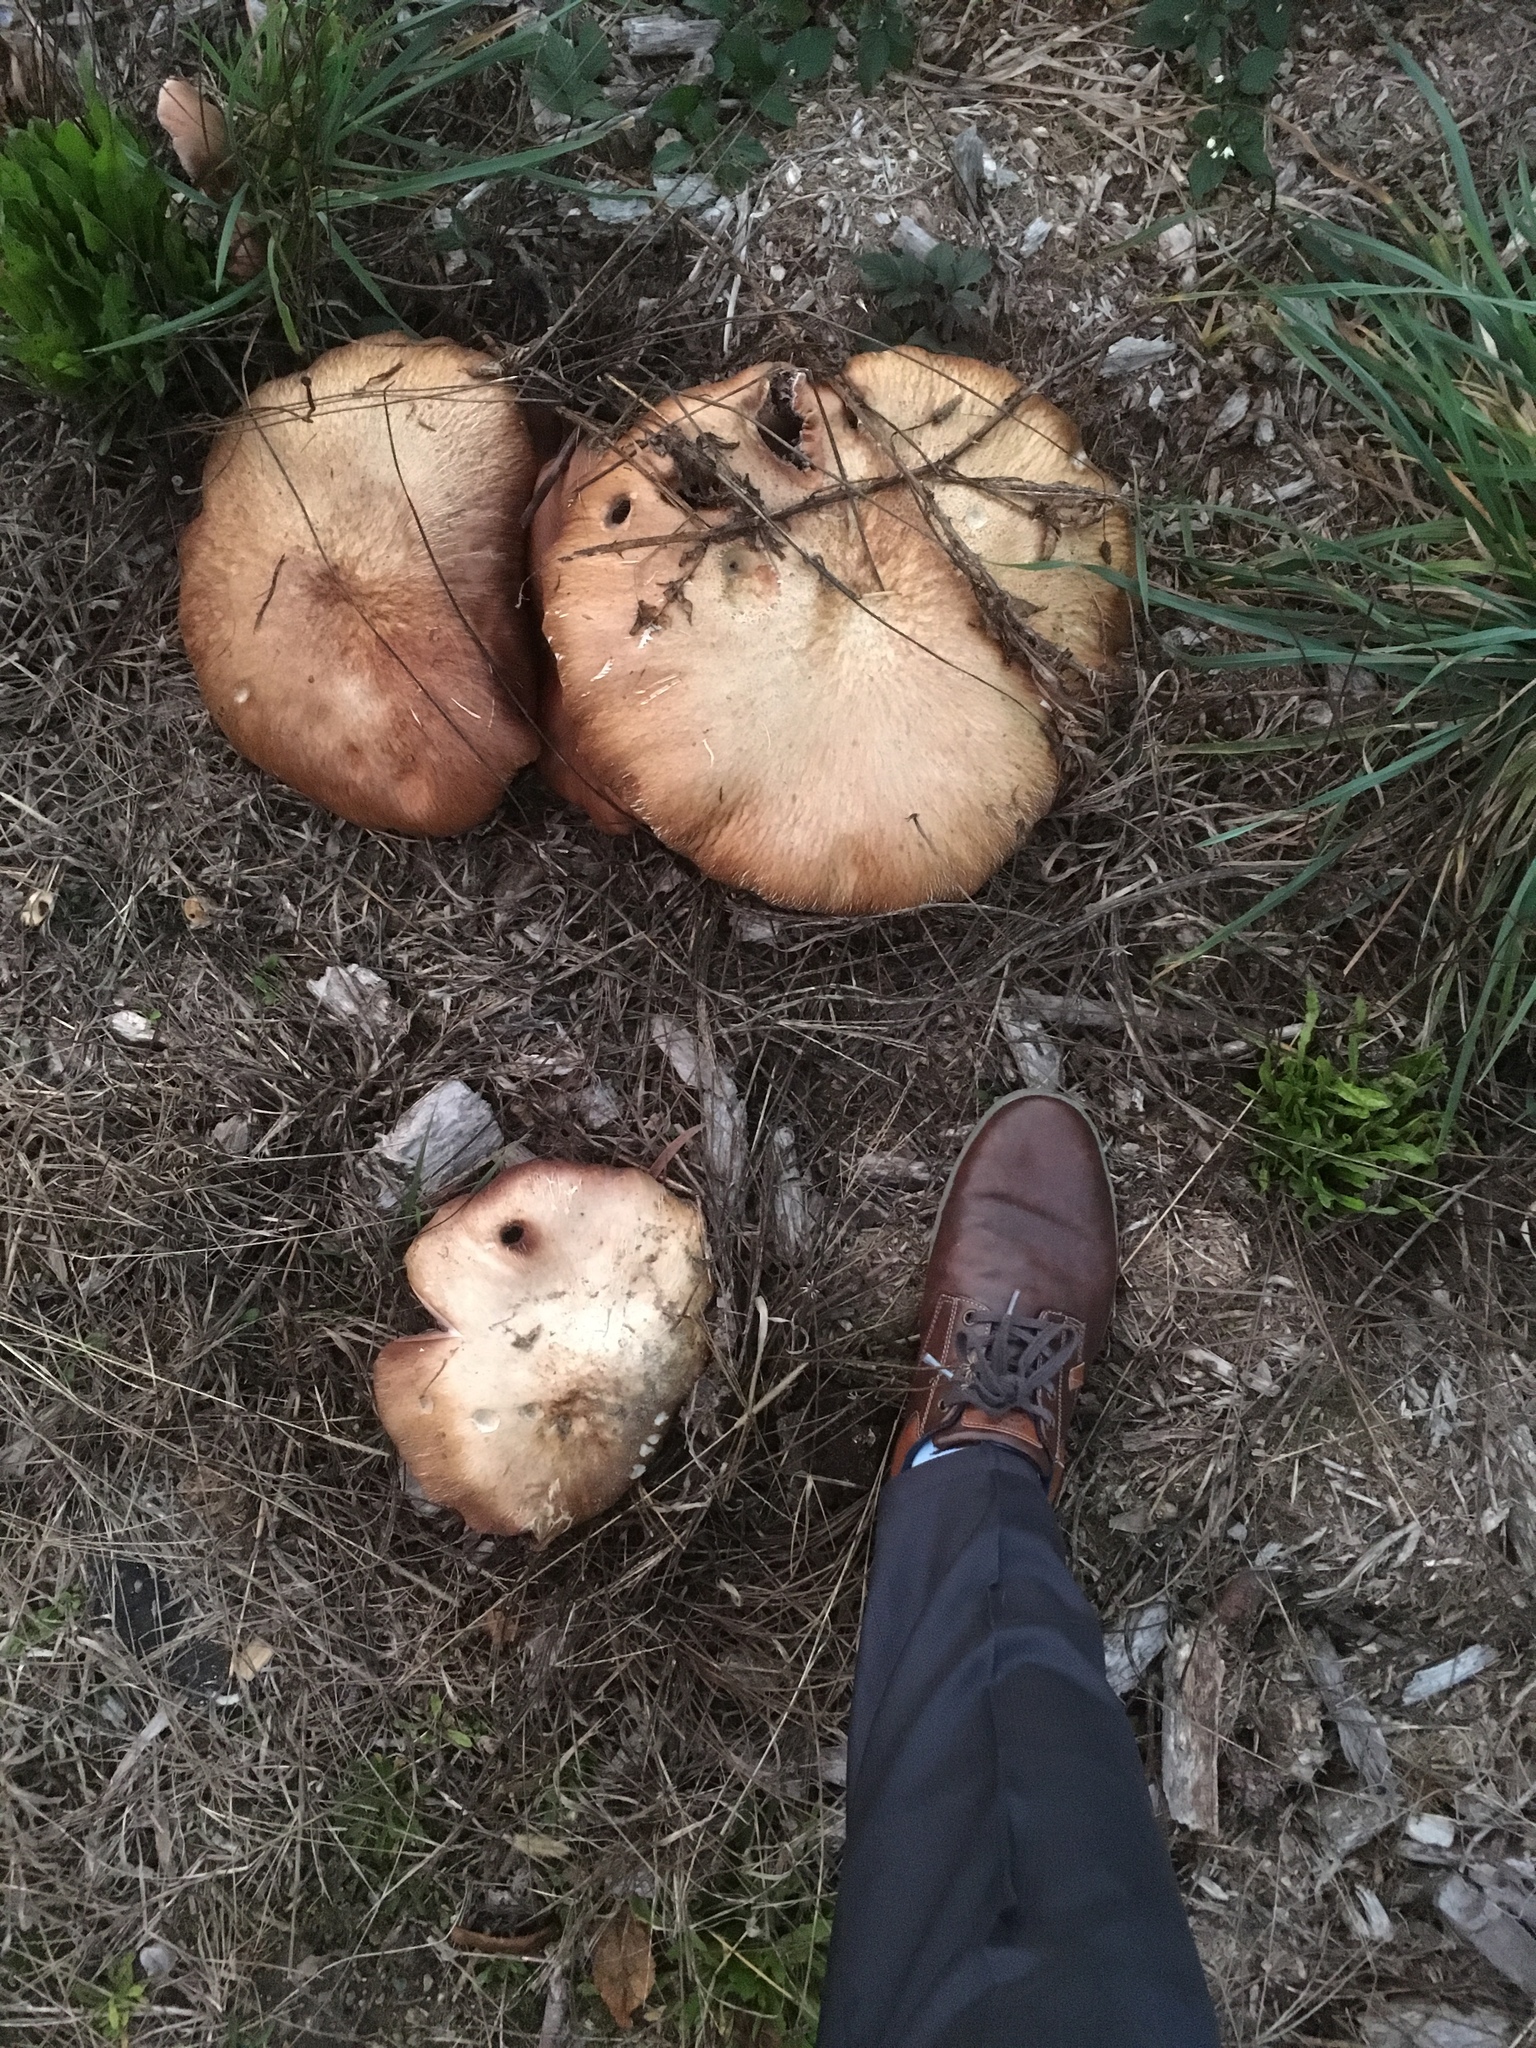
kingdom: Fungi
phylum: Basidiomycota
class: Agaricomycetes
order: Agaricales
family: Strophariaceae
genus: Stropharia
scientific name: Stropharia rugosoannulata
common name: Wine roundhead
